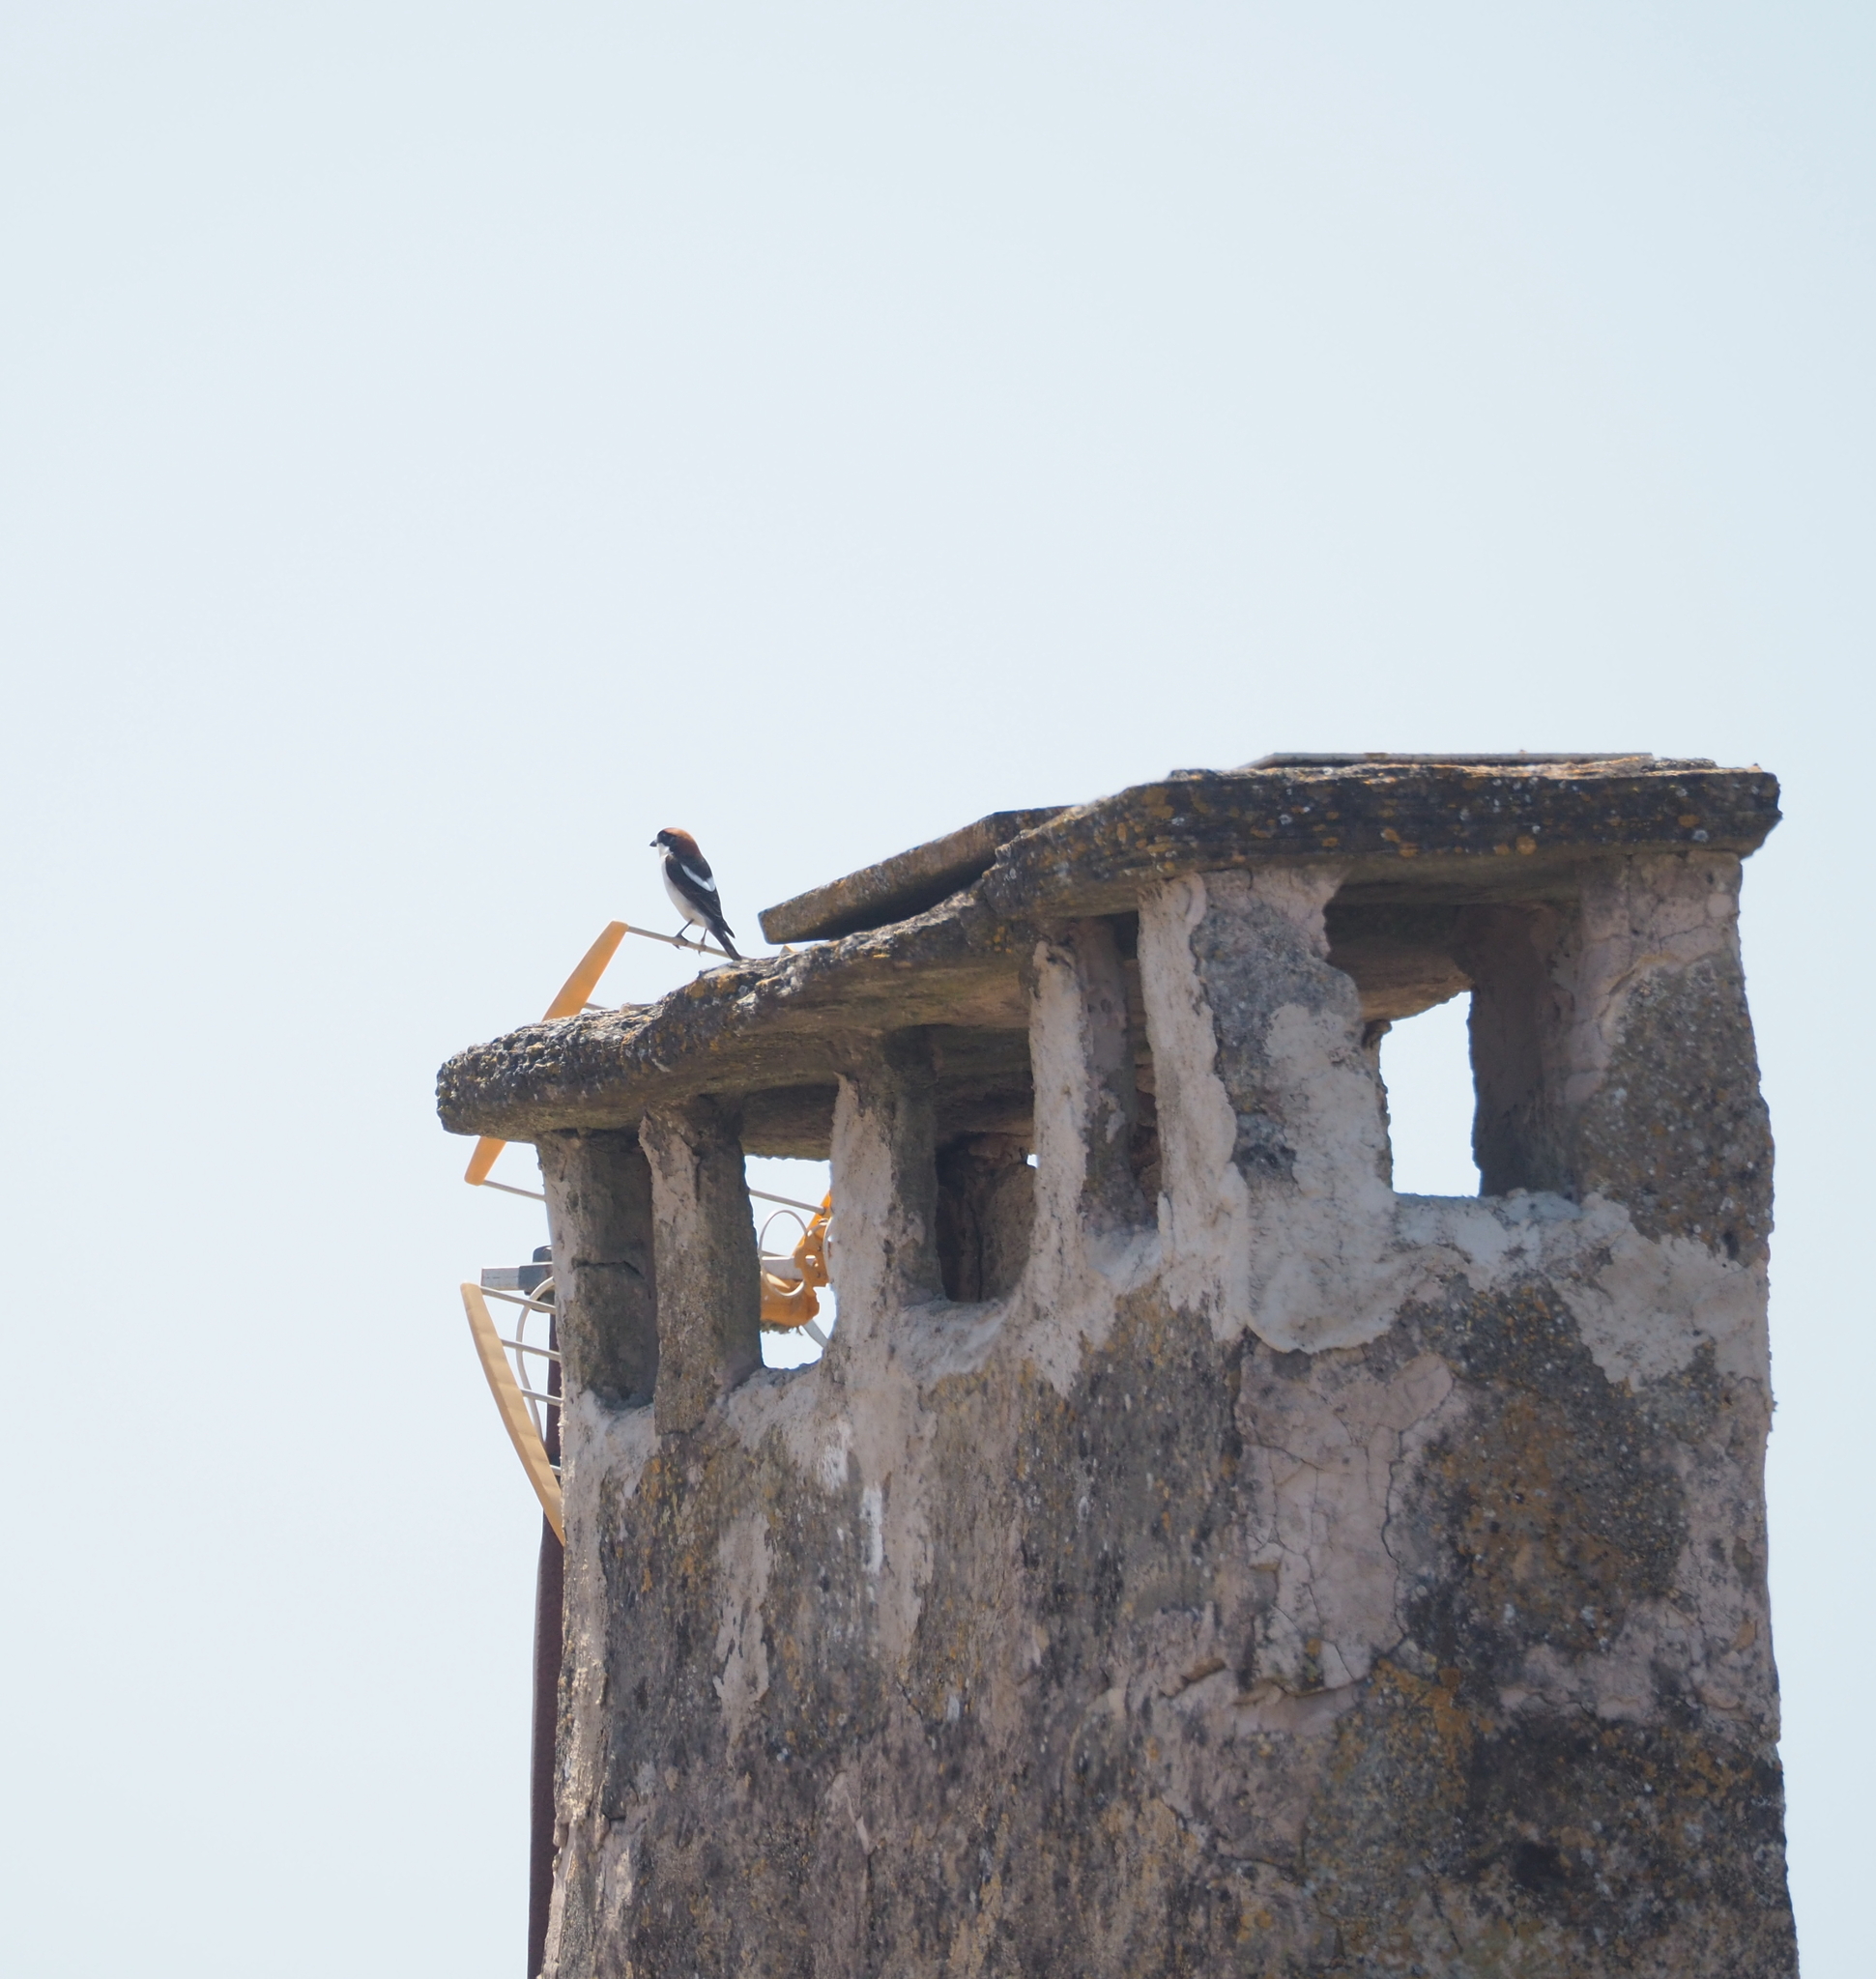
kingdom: Animalia
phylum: Chordata
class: Aves
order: Passeriformes
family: Laniidae
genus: Lanius
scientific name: Lanius senator
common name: Woodchat shrike
